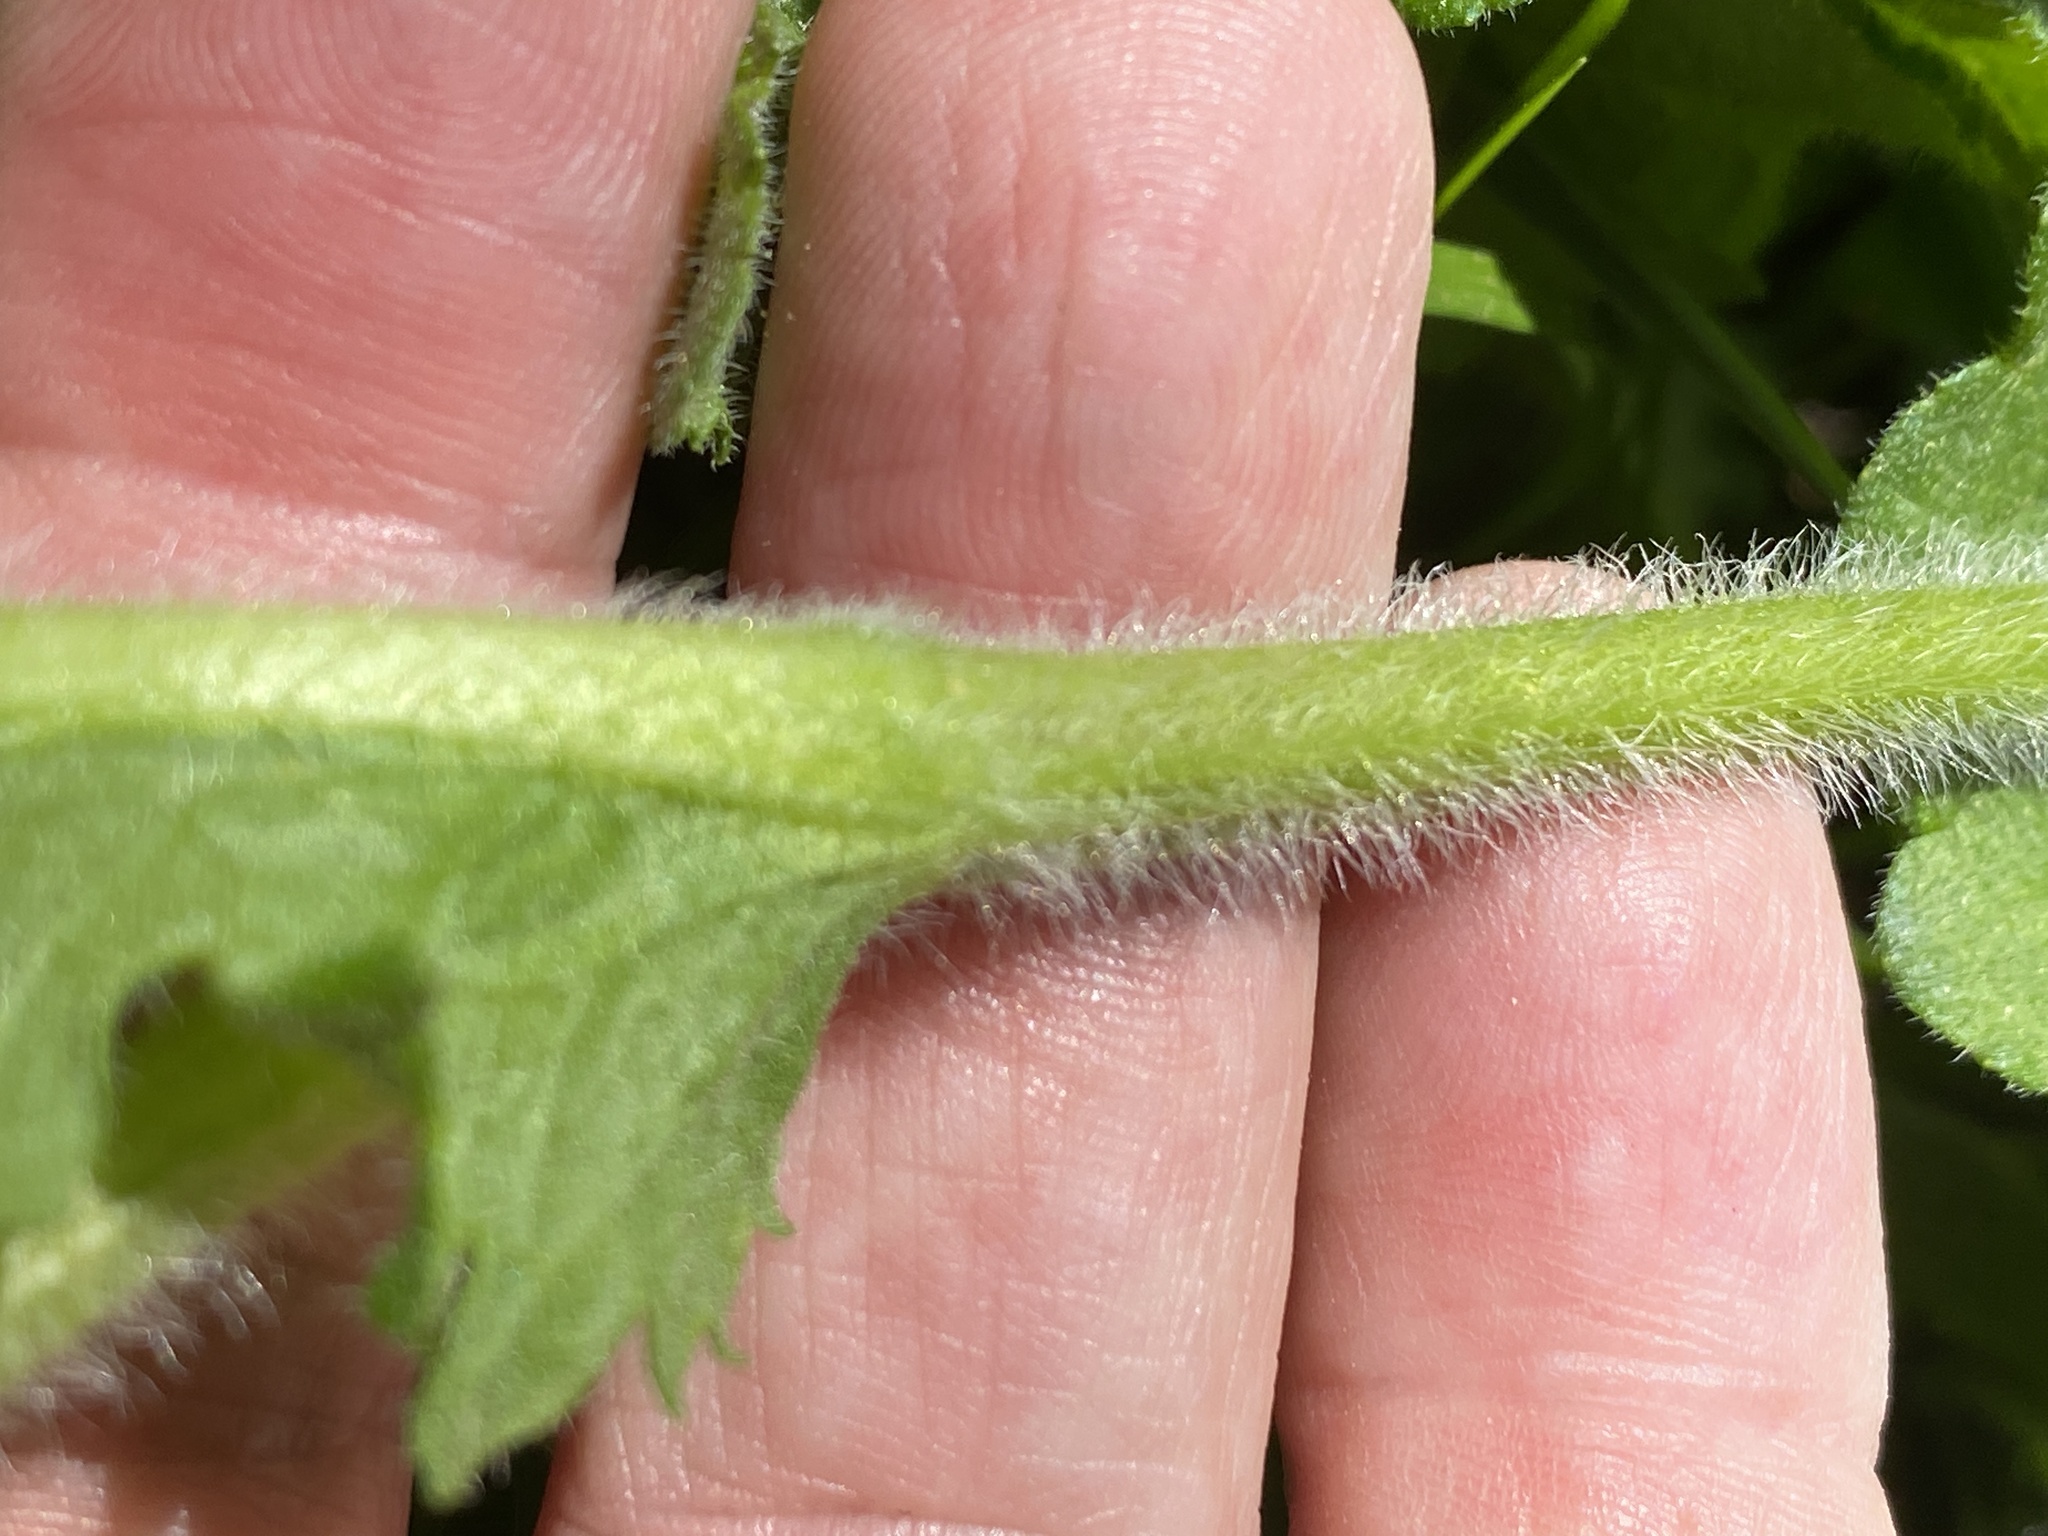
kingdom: Plantae
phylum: Tracheophyta
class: Magnoliopsida
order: Asterales
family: Asteraceae
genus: Parthenium
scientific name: Parthenium auriculatum
